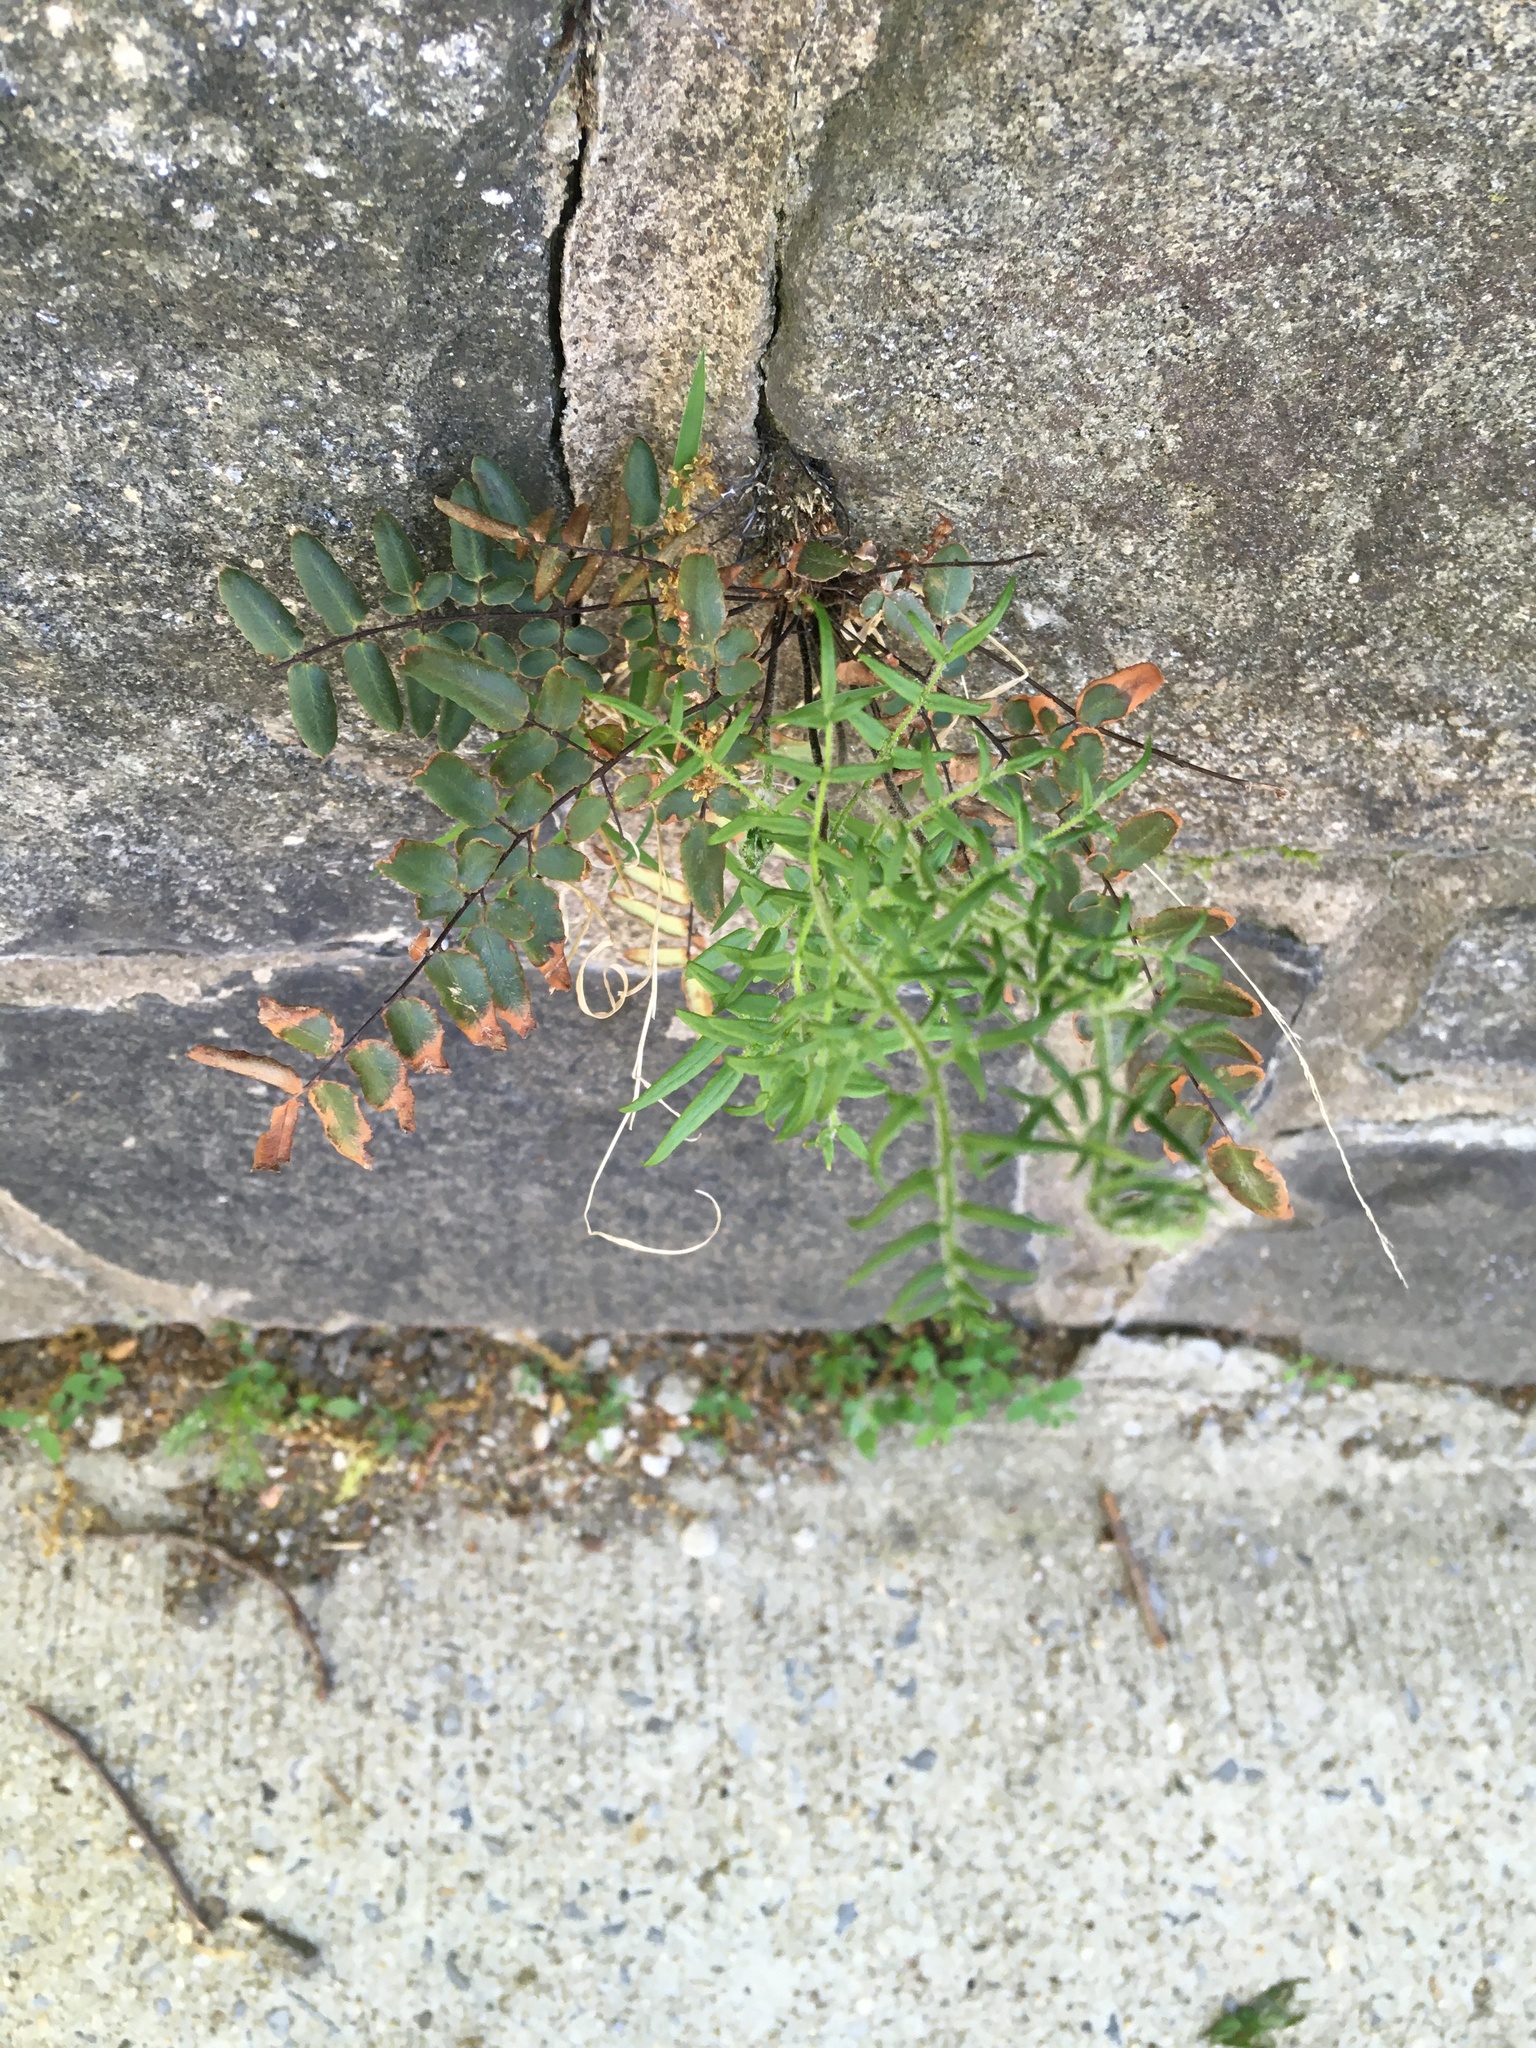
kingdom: Plantae
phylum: Tracheophyta
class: Polypodiopsida
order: Polypodiales
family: Pteridaceae
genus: Pellaea
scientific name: Pellaea atropurpurea
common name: Hairy cliffbrake
